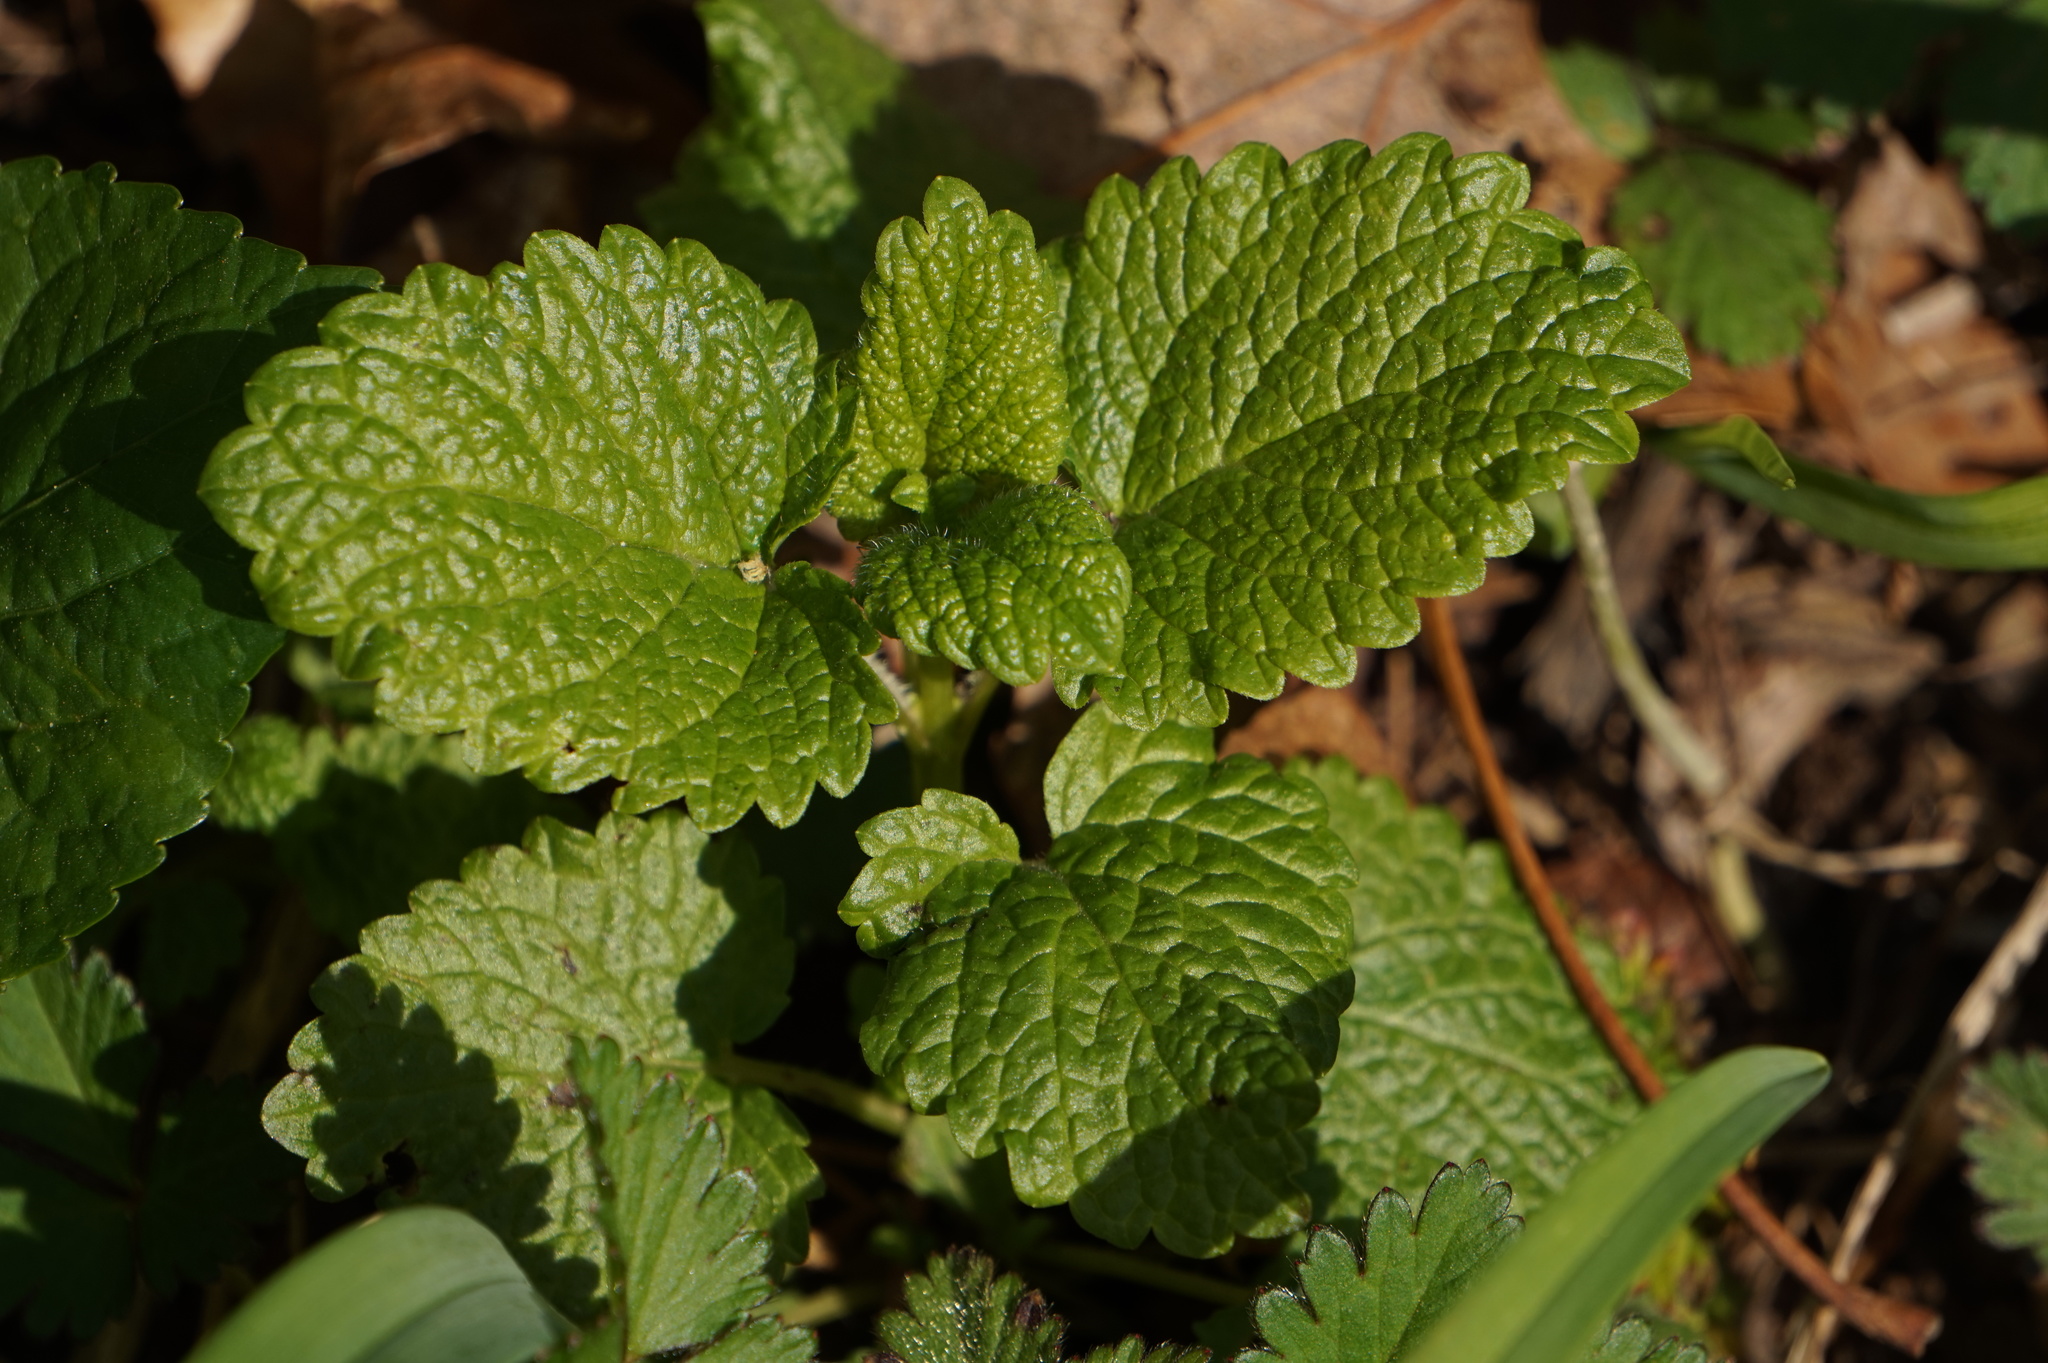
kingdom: Plantae
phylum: Tracheophyta
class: Magnoliopsida
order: Lamiales
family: Lamiaceae
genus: Melissa
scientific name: Melissa officinalis
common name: Balm
